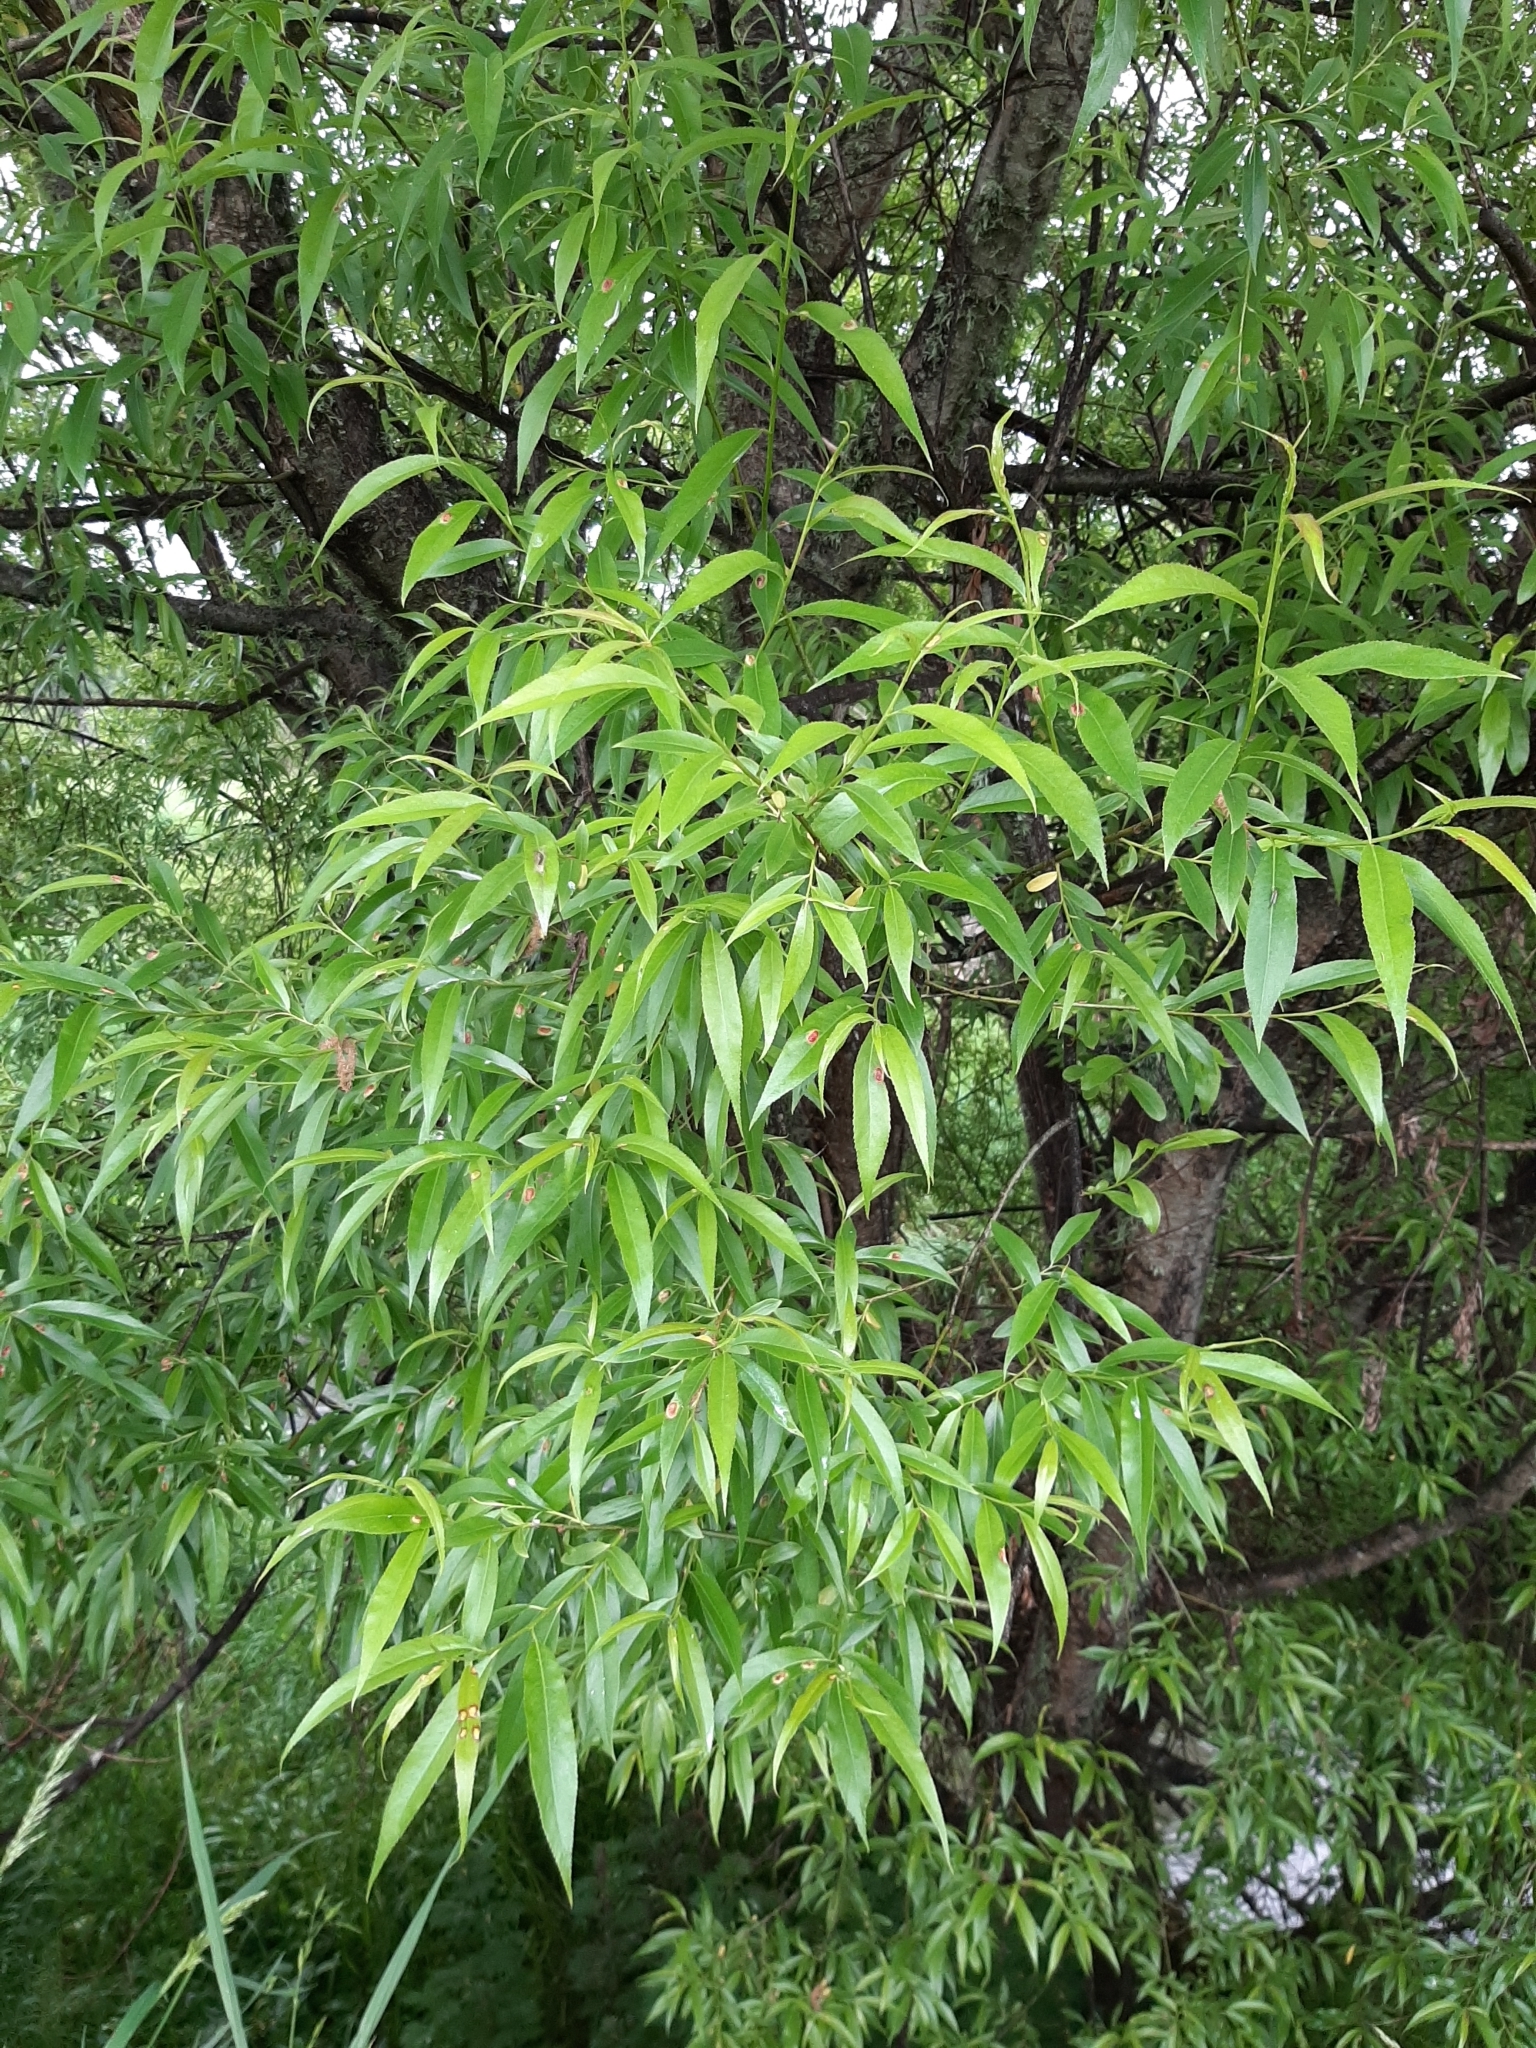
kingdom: Plantae
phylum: Tracheophyta
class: Magnoliopsida
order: Malpighiales
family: Salicaceae
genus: Salix
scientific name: Salix fragilis
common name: Crack willow
